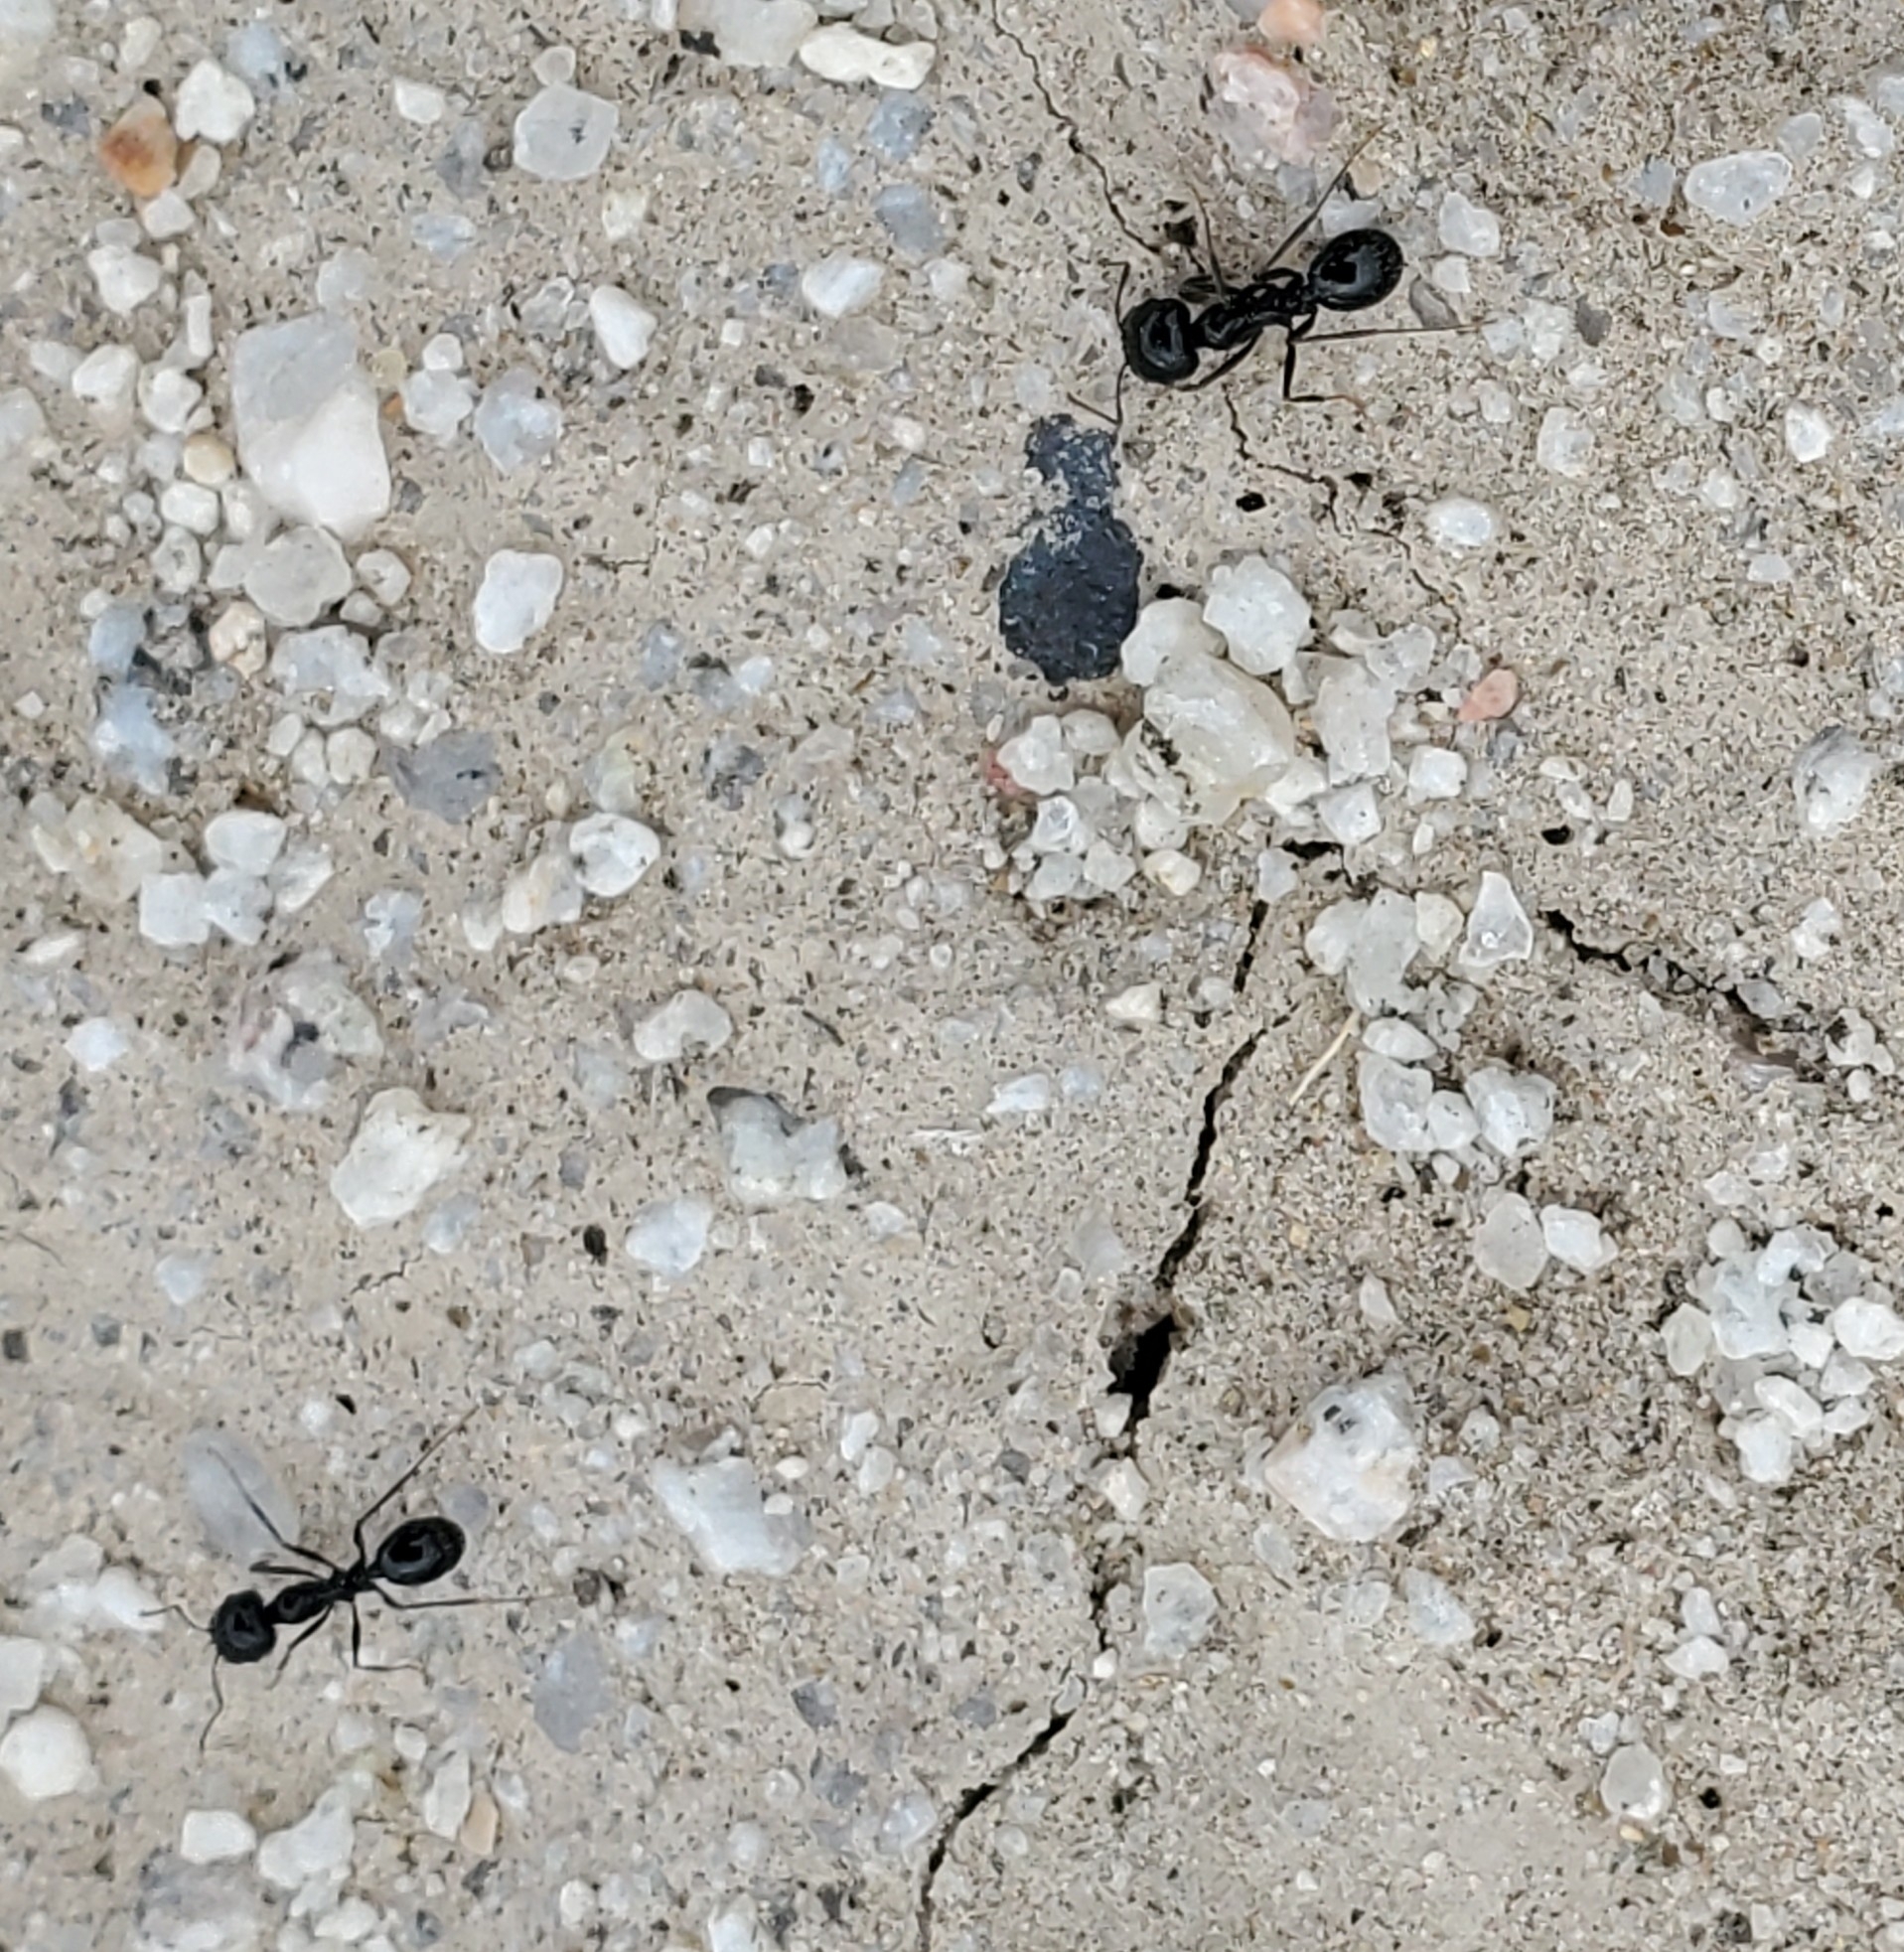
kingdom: Animalia
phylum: Arthropoda
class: Insecta
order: Hymenoptera
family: Formicidae
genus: Messor
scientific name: Messor pergandei
